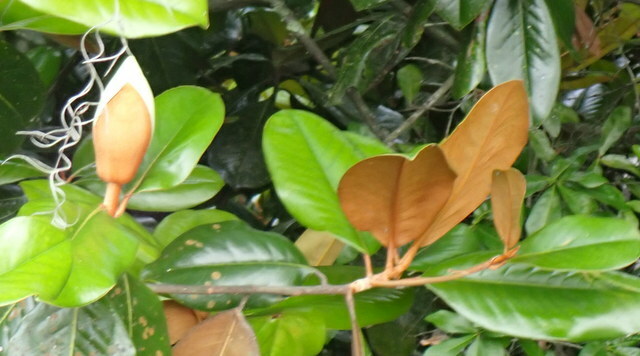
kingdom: Plantae
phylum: Tracheophyta
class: Magnoliopsida
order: Magnoliales
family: Magnoliaceae
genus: Magnolia
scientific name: Magnolia grandiflora
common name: Southern magnolia
